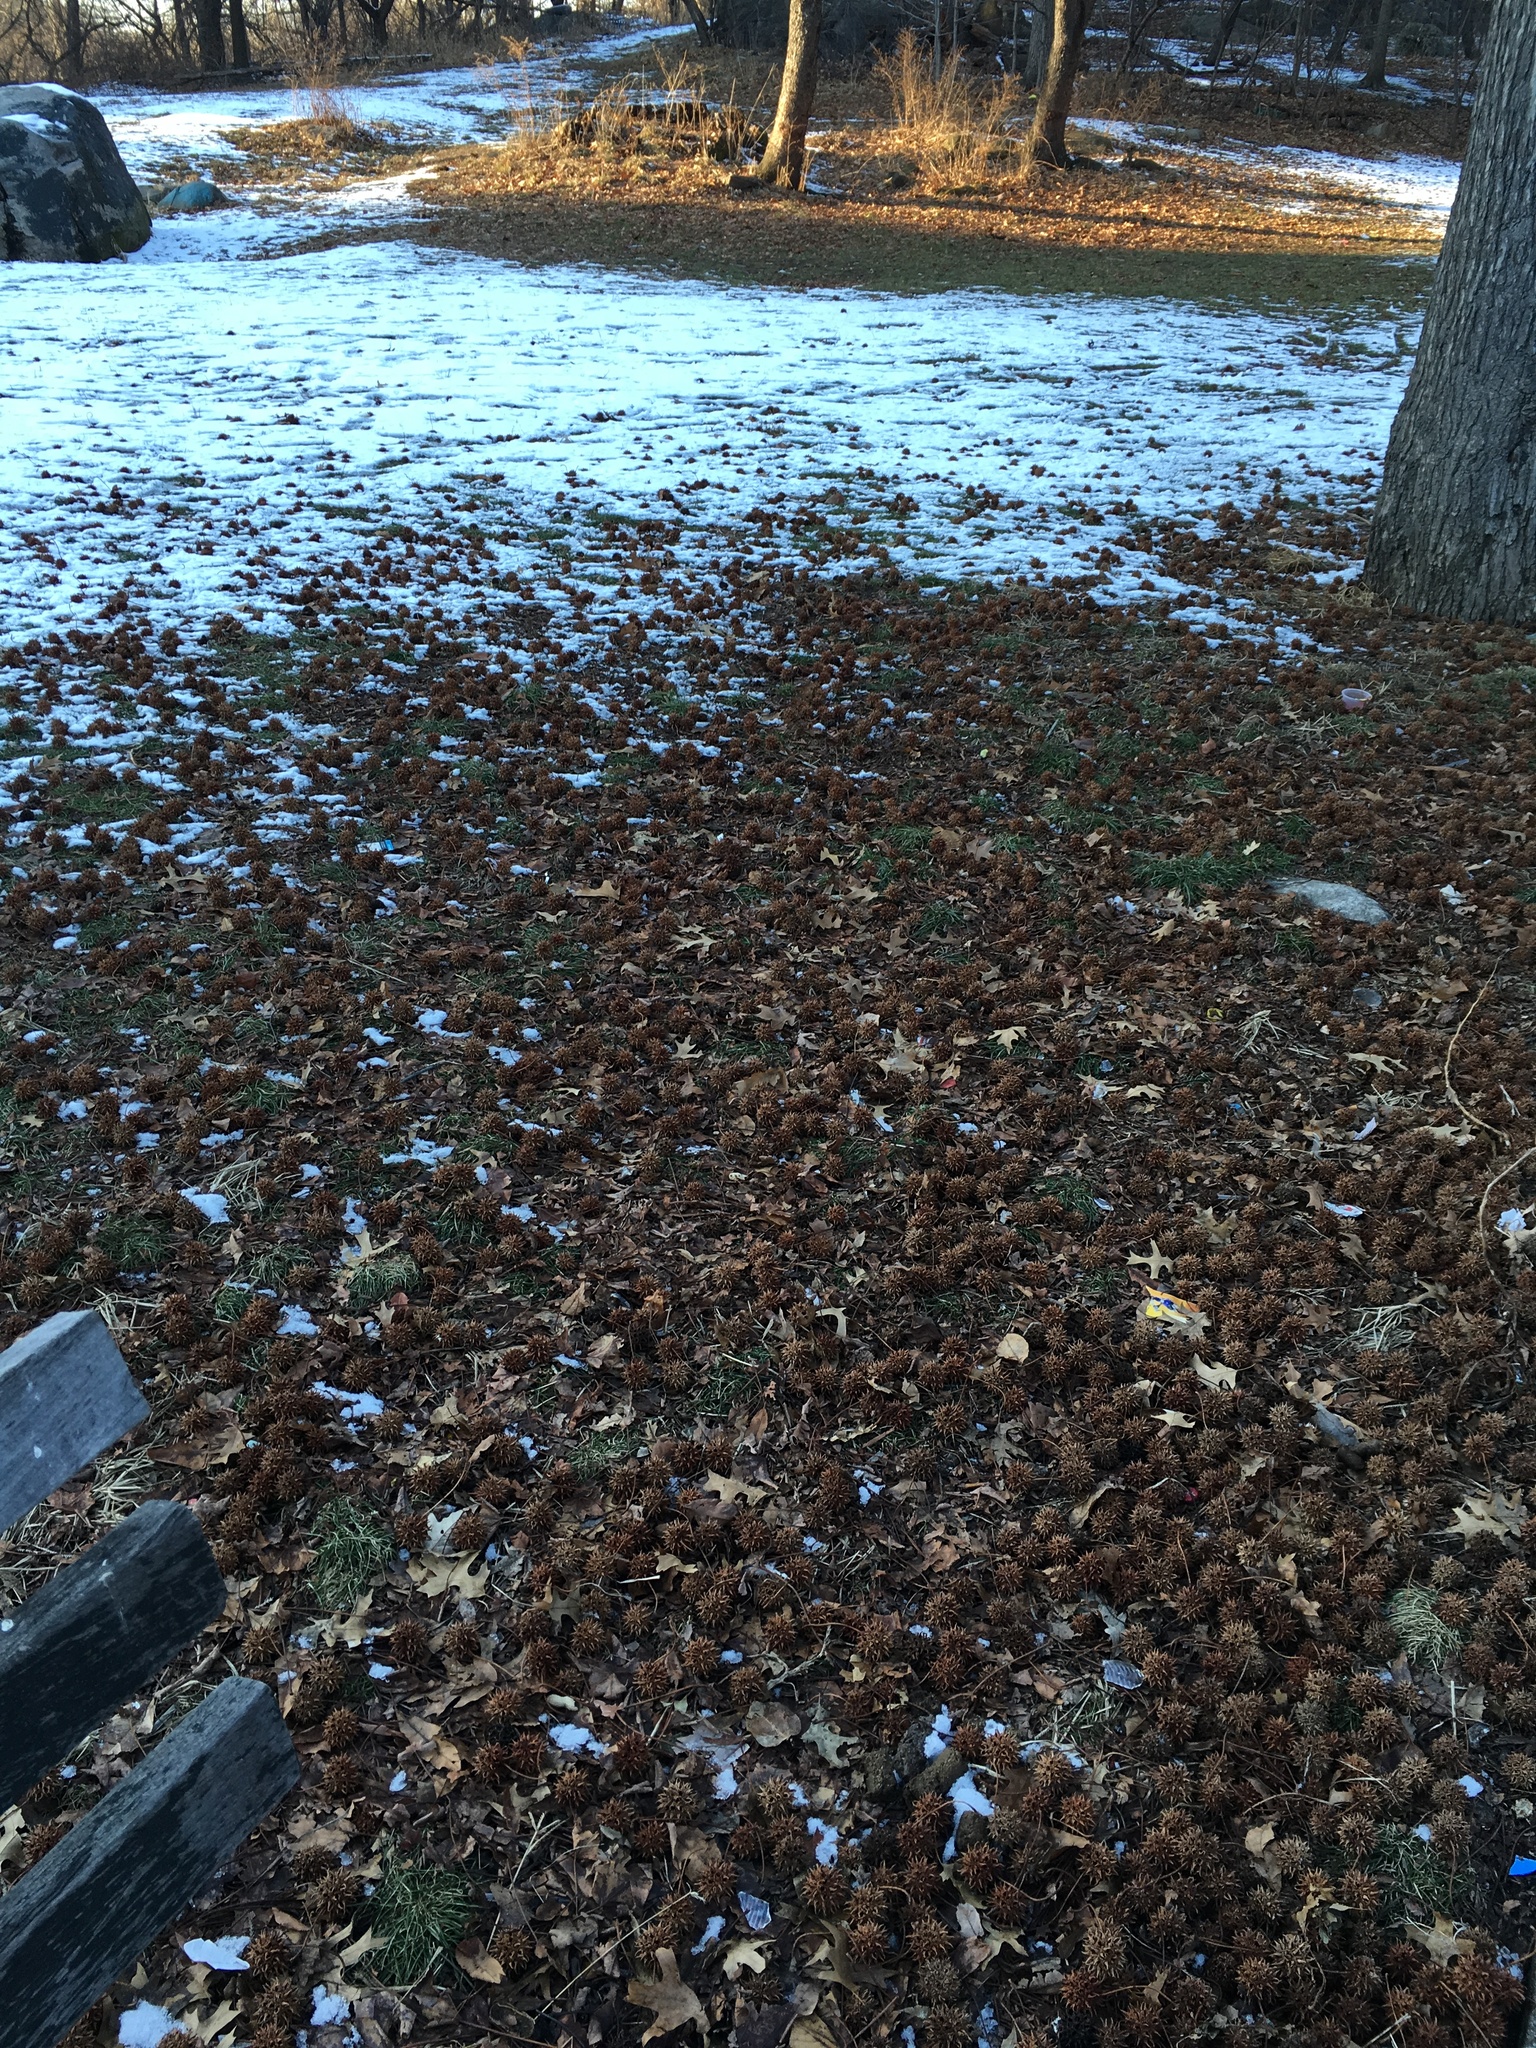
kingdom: Plantae
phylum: Tracheophyta
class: Magnoliopsida
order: Saxifragales
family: Altingiaceae
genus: Liquidambar
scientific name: Liquidambar styraciflua
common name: Sweet gum
